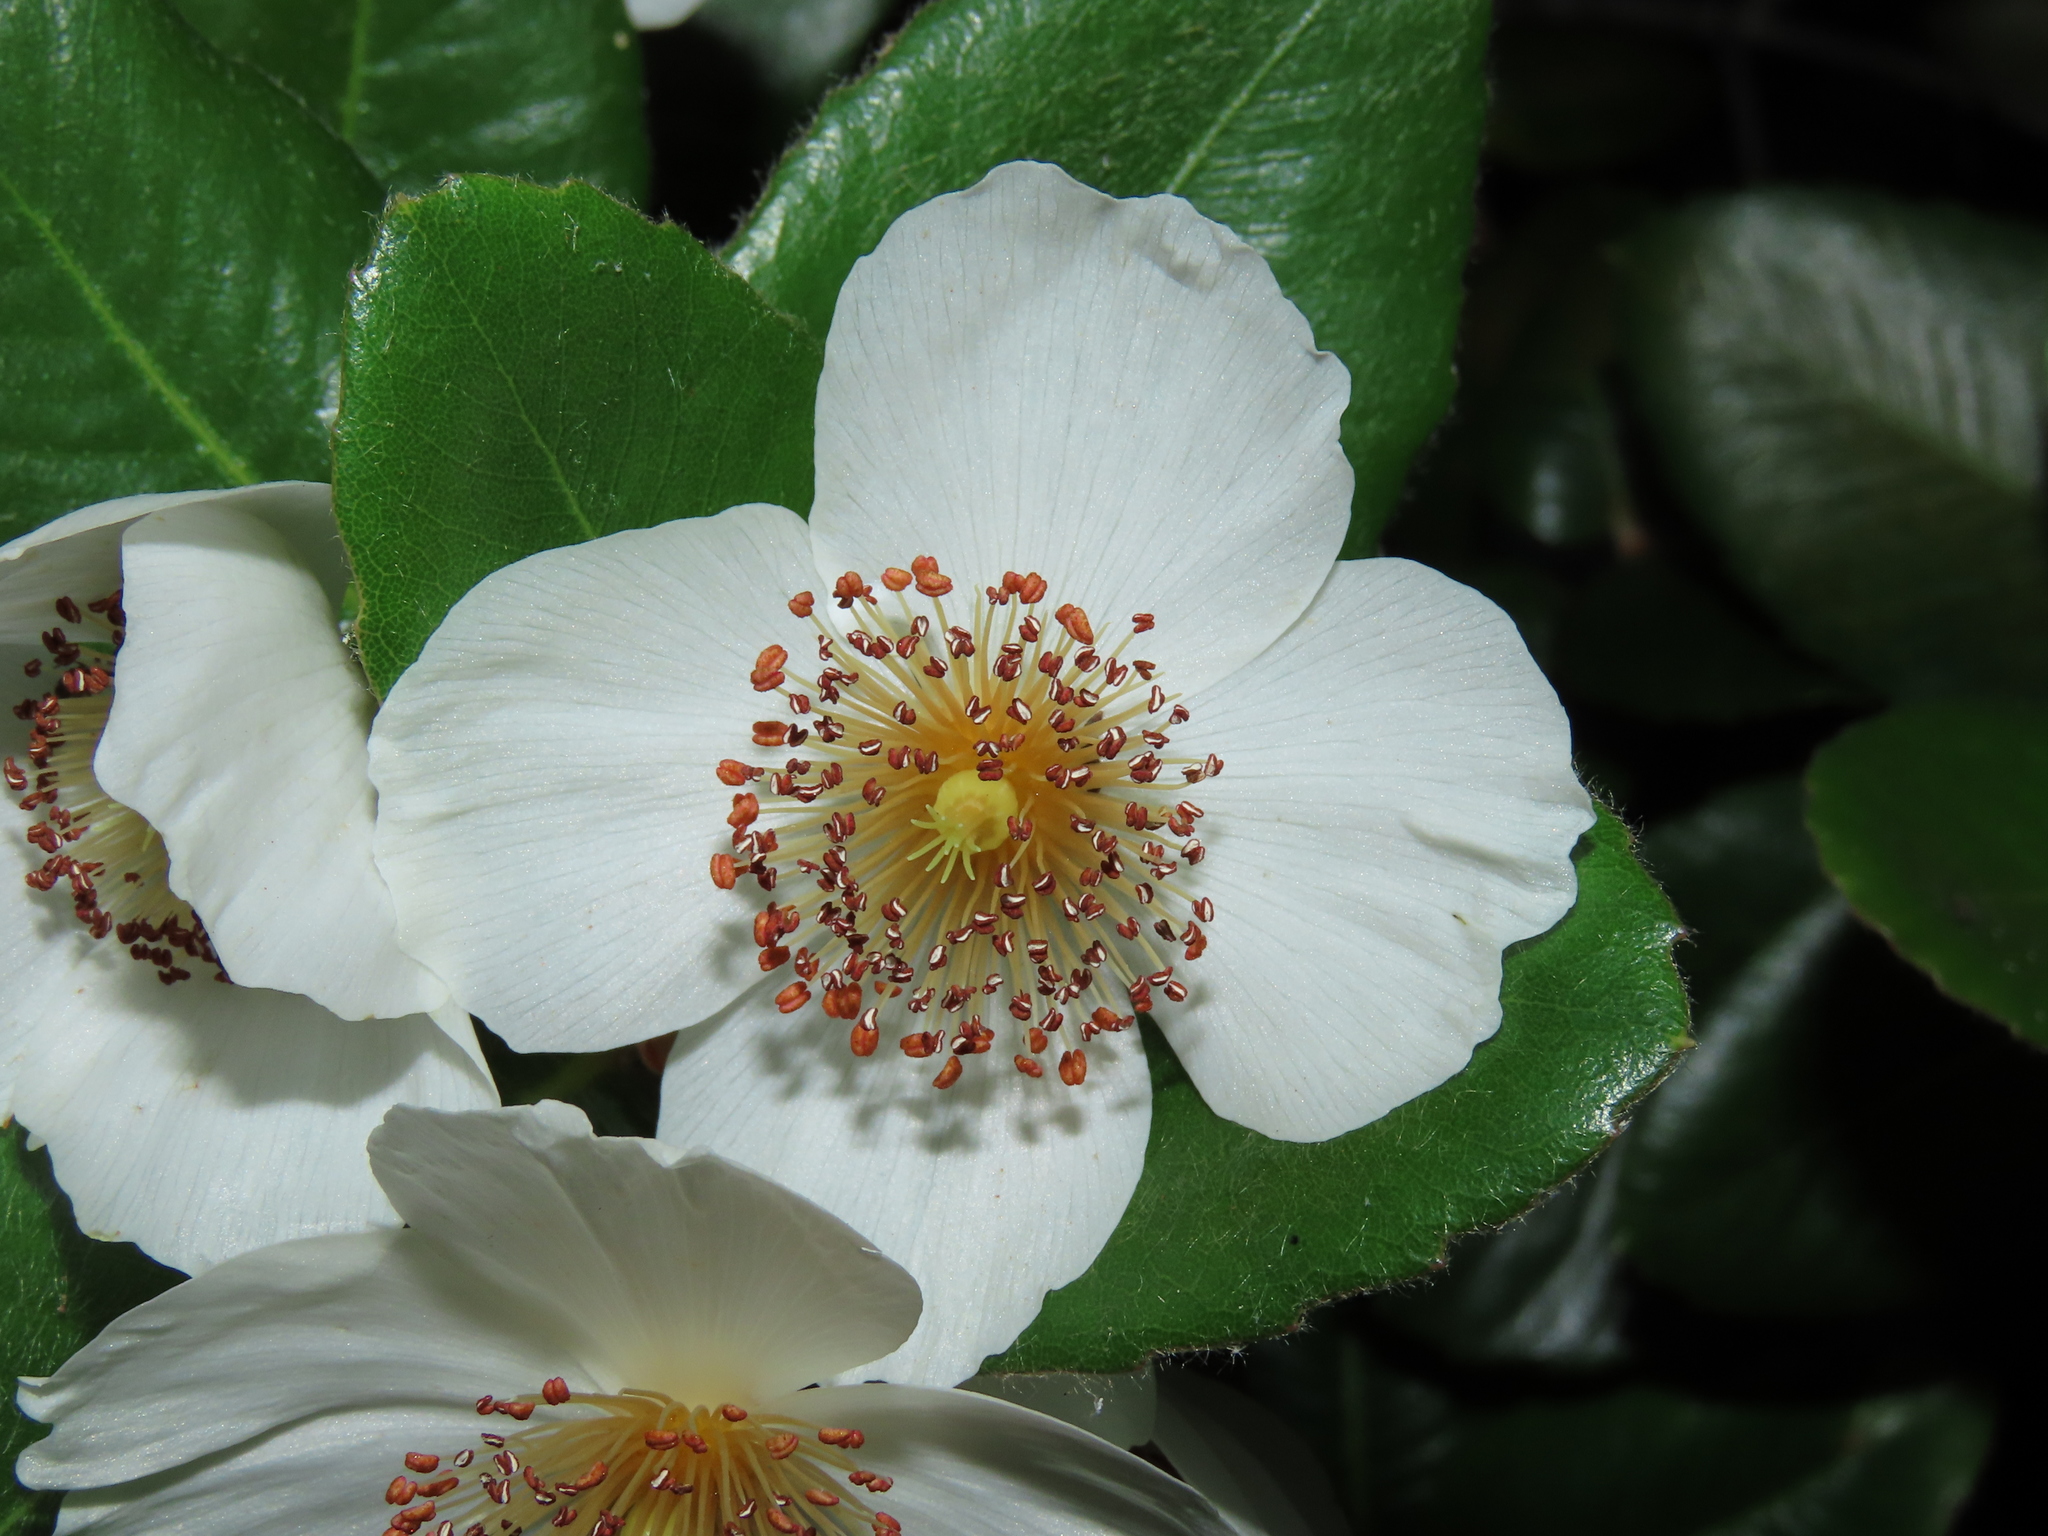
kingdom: Plantae
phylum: Tracheophyta
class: Magnoliopsida
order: Oxalidales
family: Cunoniaceae
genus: Eucryphia
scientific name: Eucryphia cordifolia
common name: Ulmo
